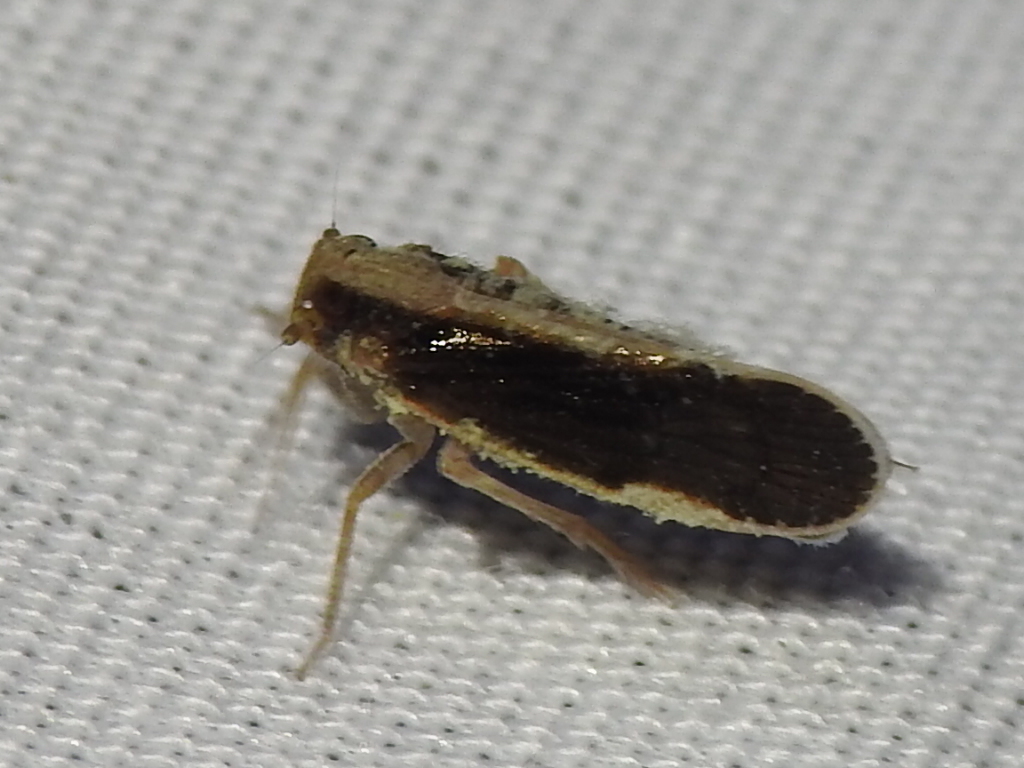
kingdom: Animalia
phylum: Arthropoda
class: Insecta
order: Hemiptera
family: Cixiidae
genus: Pintalia
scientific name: Pintalia delicata
